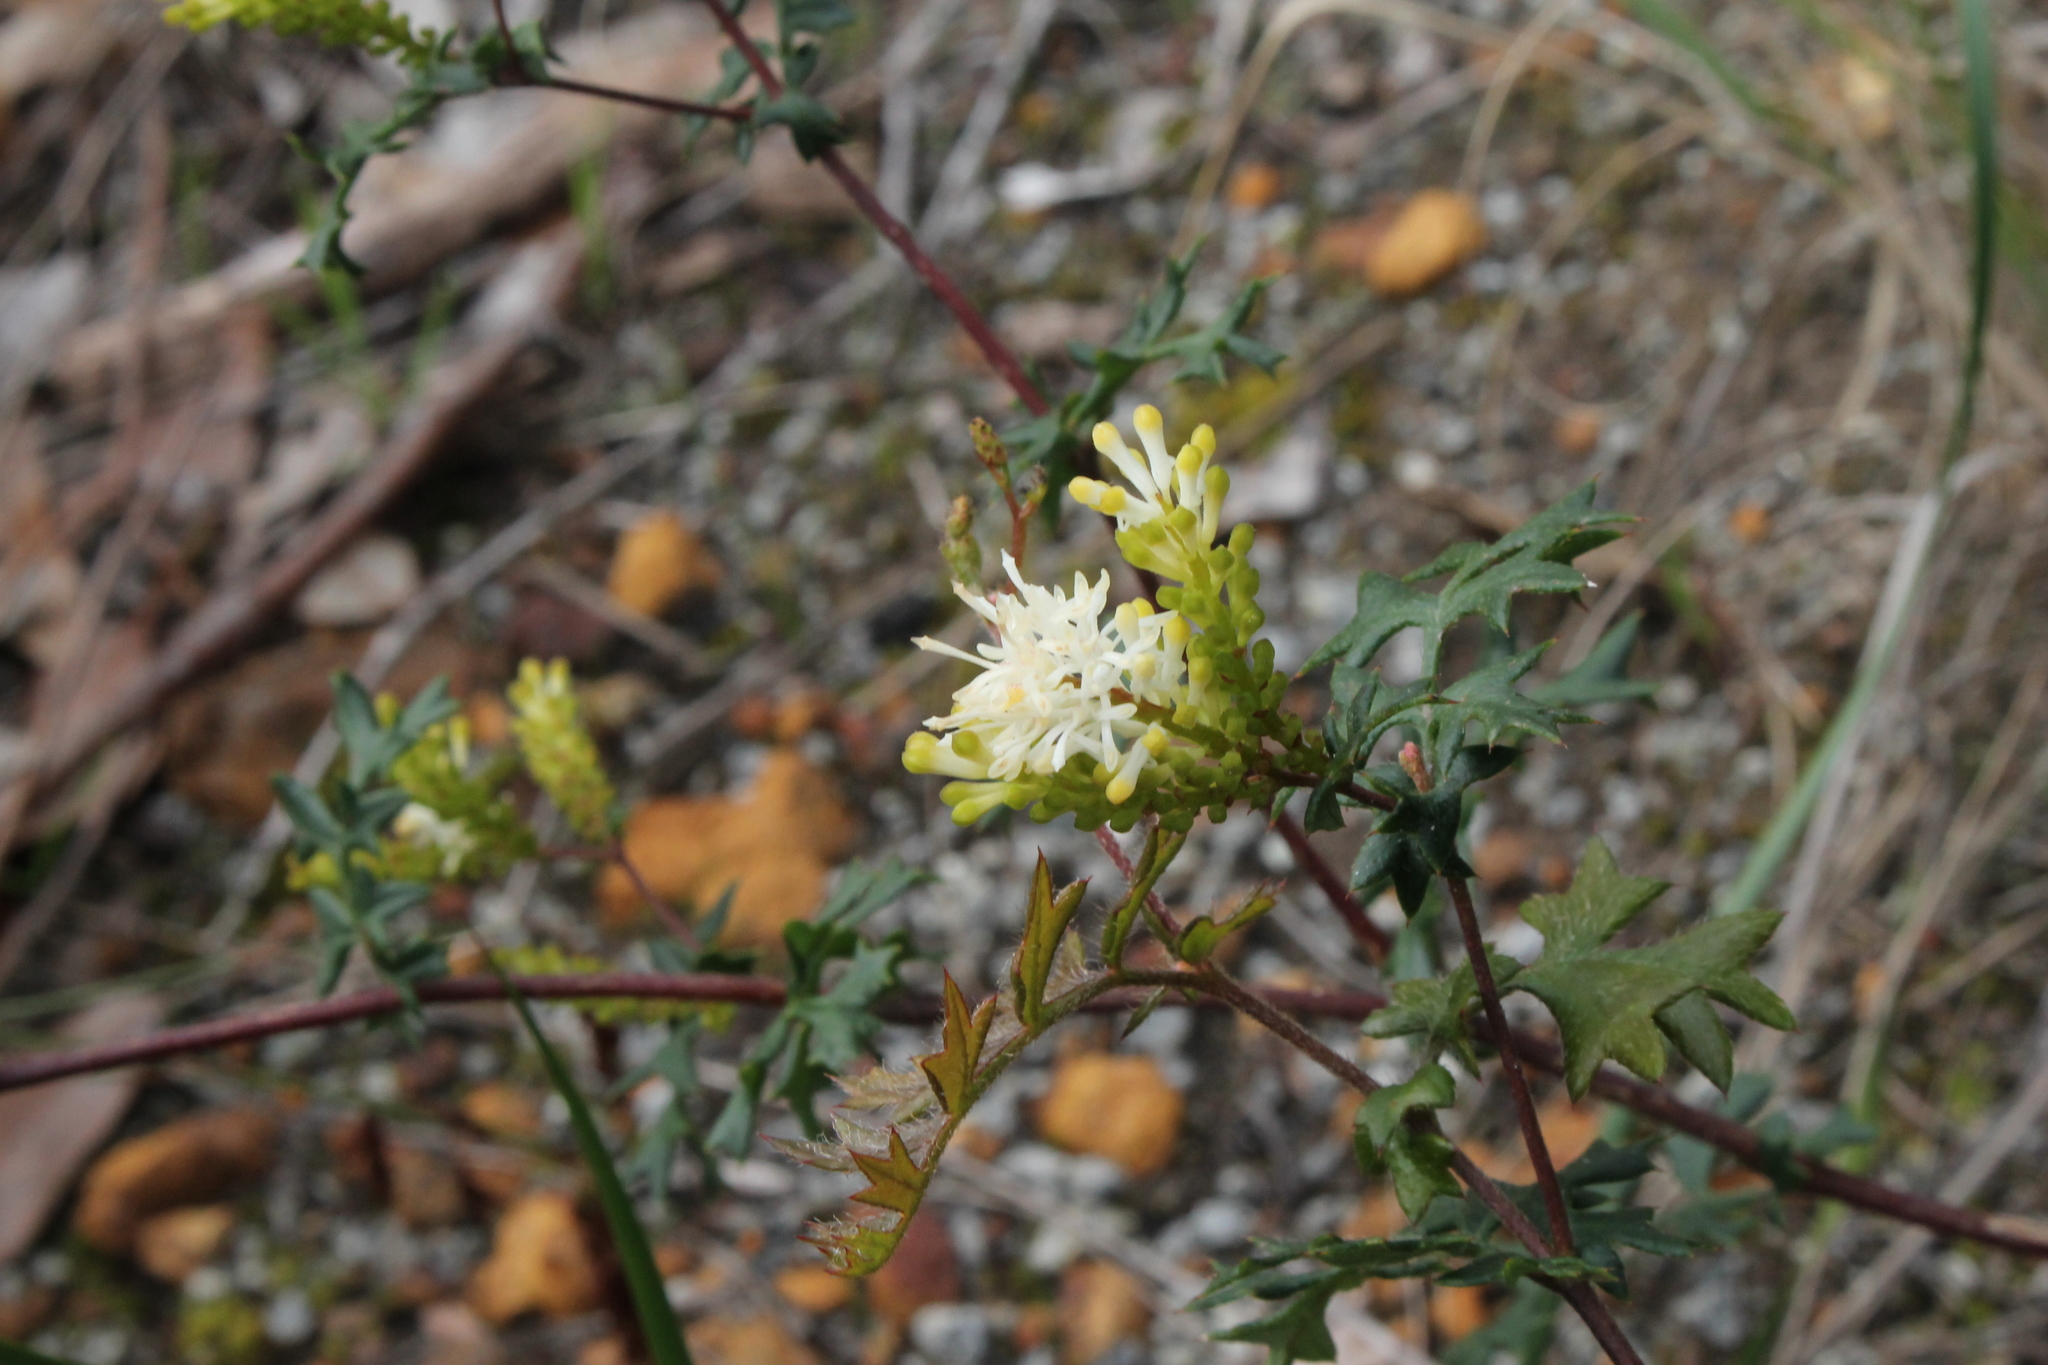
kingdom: Plantae
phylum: Tracheophyta
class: Magnoliopsida
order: Proteales
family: Proteaceae
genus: Grevillea
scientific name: Grevillea pulchella
